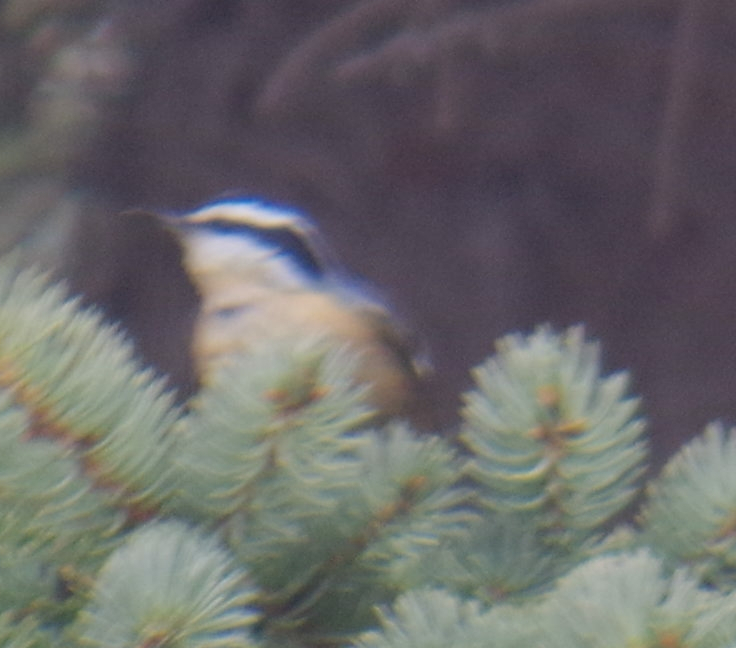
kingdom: Animalia
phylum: Chordata
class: Aves
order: Passeriformes
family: Sittidae
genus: Sitta
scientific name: Sitta canadensis
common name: Red-breasted nuthatch
